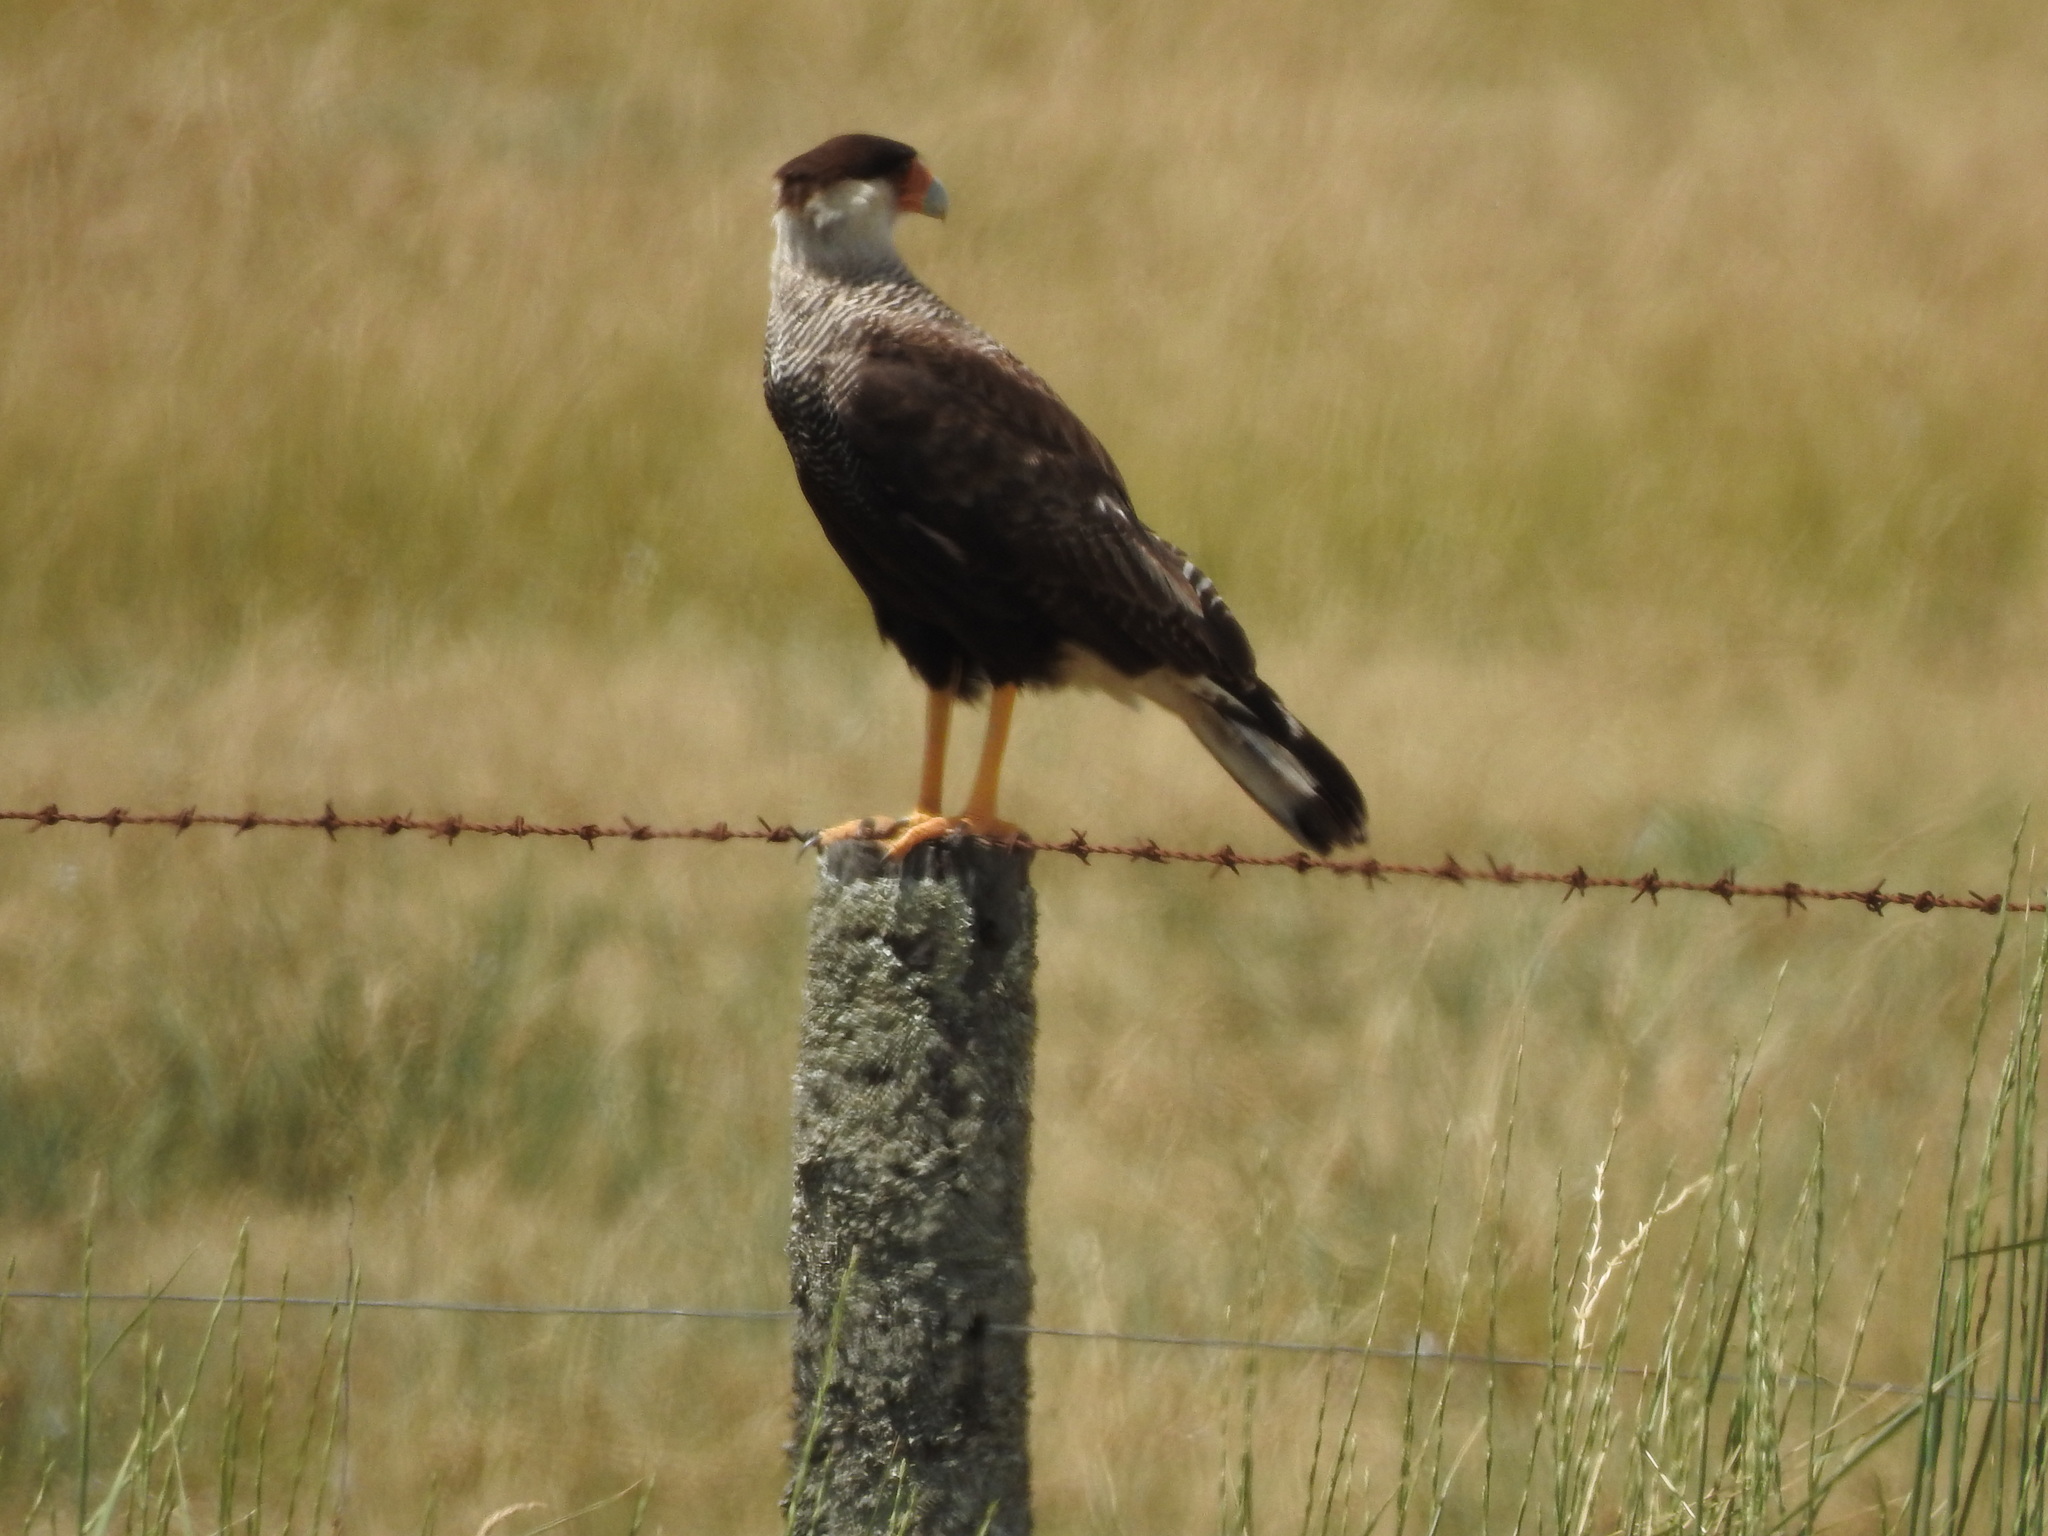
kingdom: Animalia
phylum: Chordata
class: Aves
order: Falconiformes
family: Falconidae
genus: Caracara
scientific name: Caracara plancus
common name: Southern caracara
